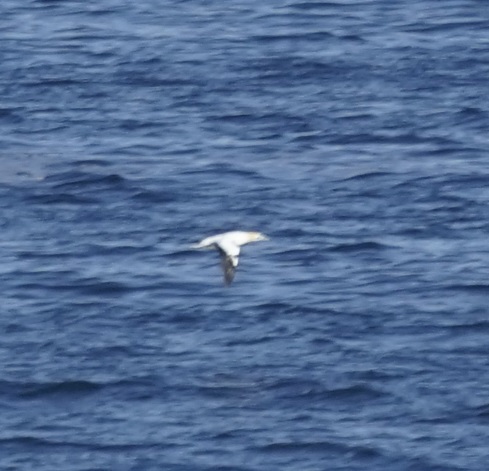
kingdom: Animalia
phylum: Chordata
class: Aves
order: Suliformes
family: Sulidae
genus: Morus
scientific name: Morus serrator
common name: Australasian gannet
